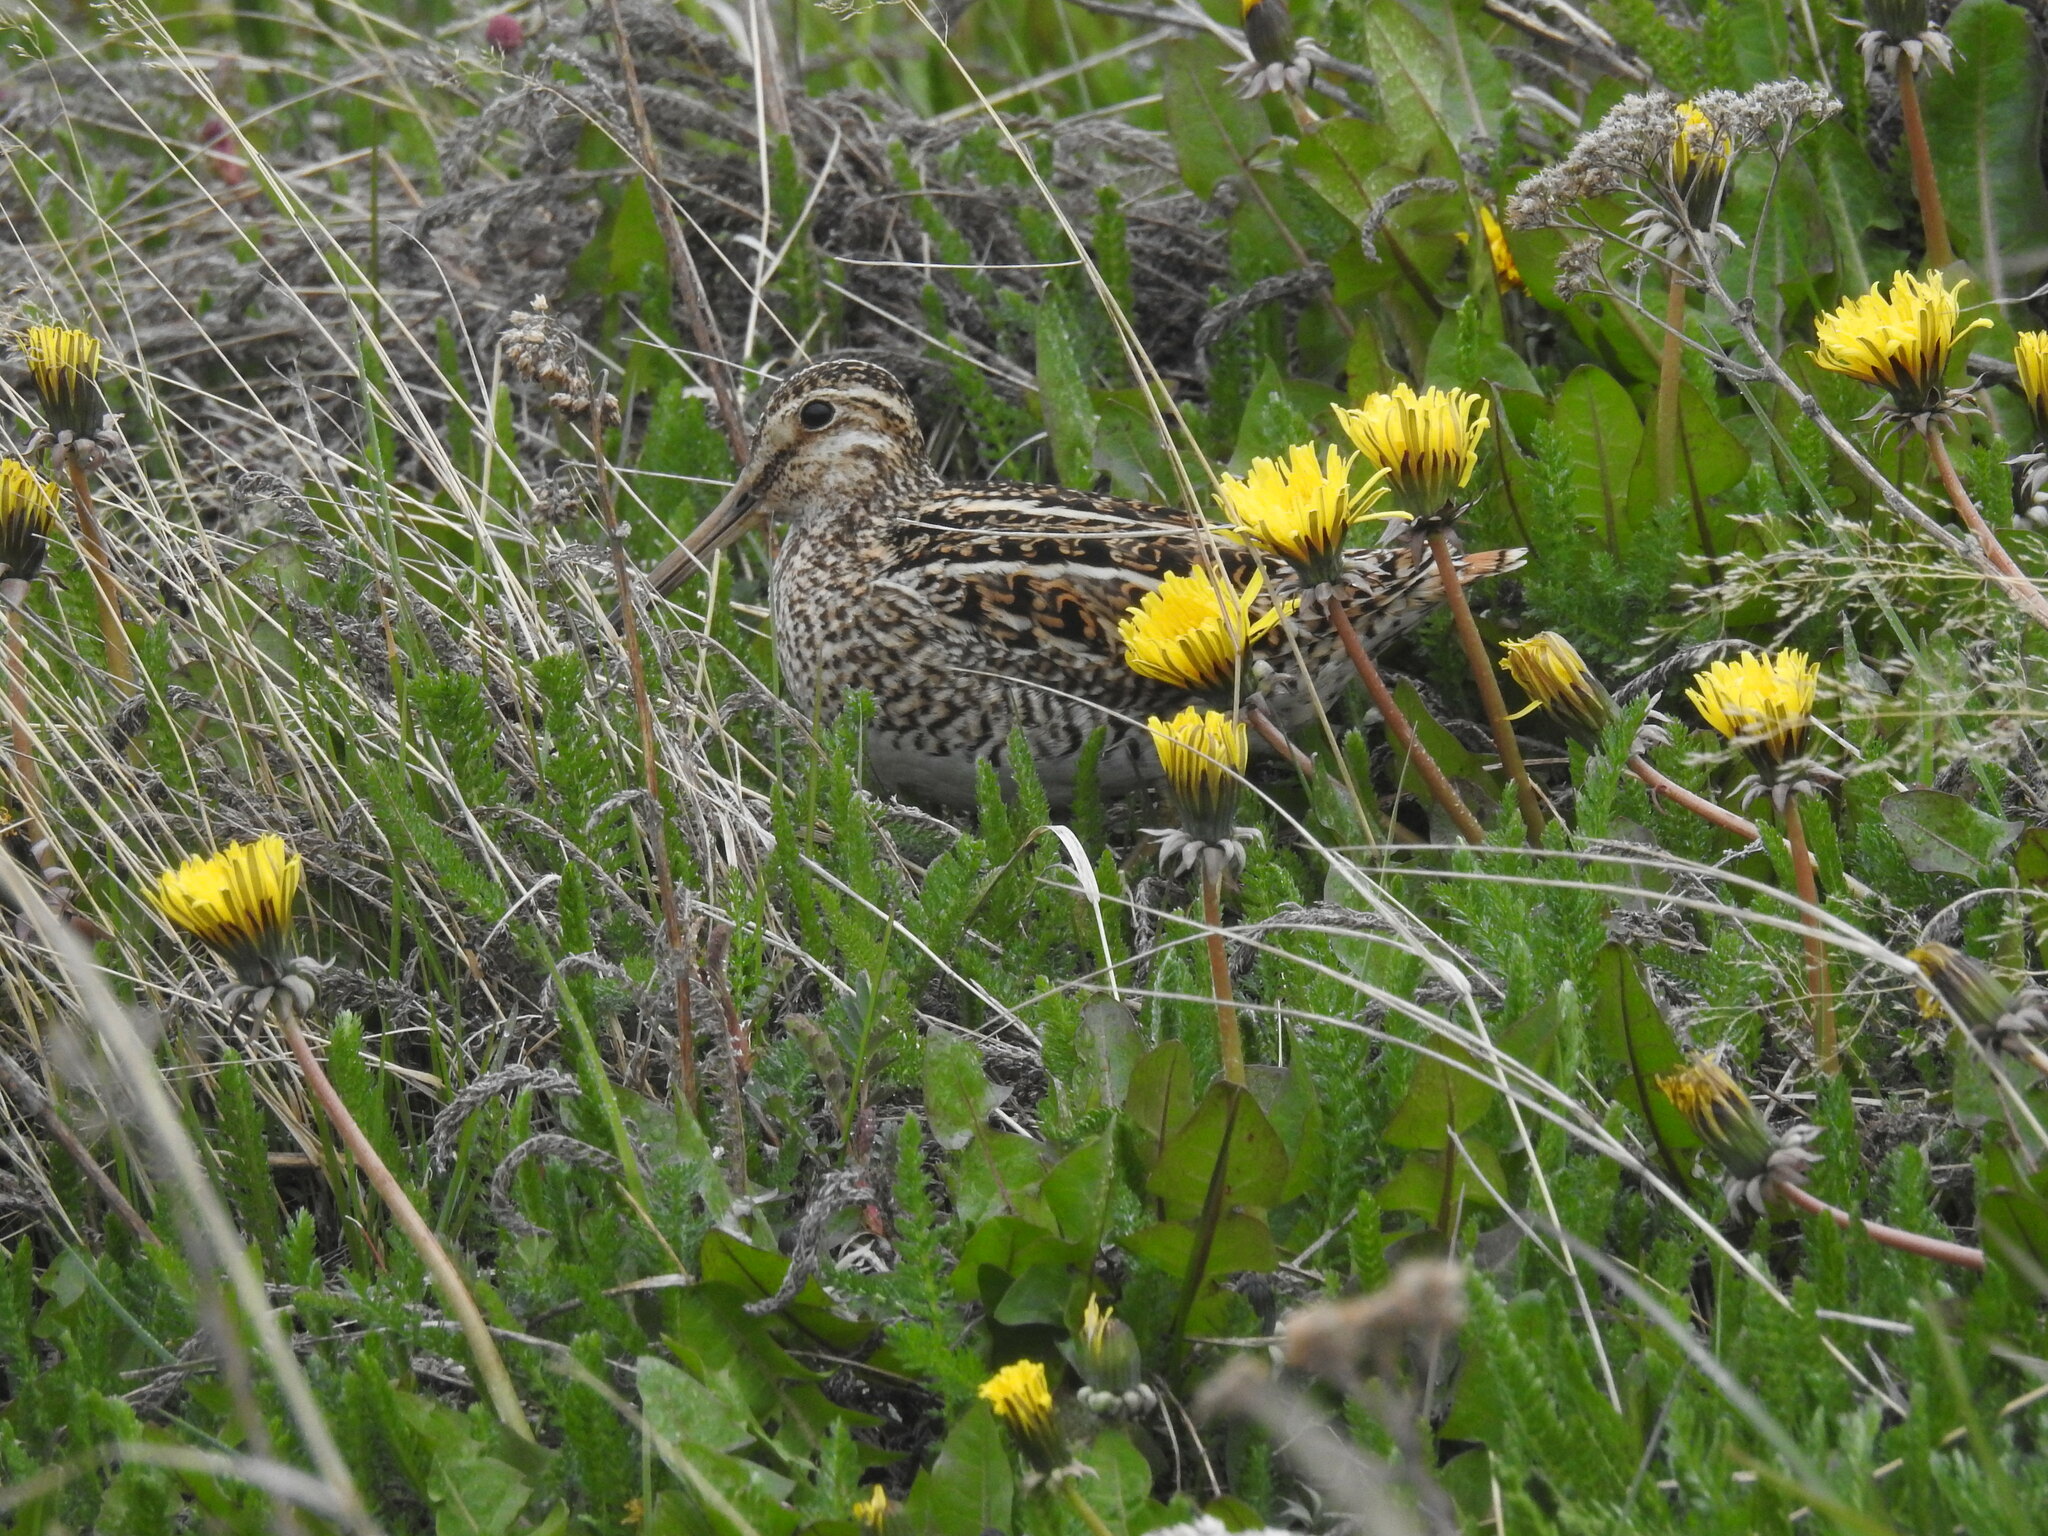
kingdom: Animalia
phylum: Chordata
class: Aves
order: Charadriiformes
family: Scolopacidae
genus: Gallinago
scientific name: Gallinago magellanica
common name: Magellanic snipe
